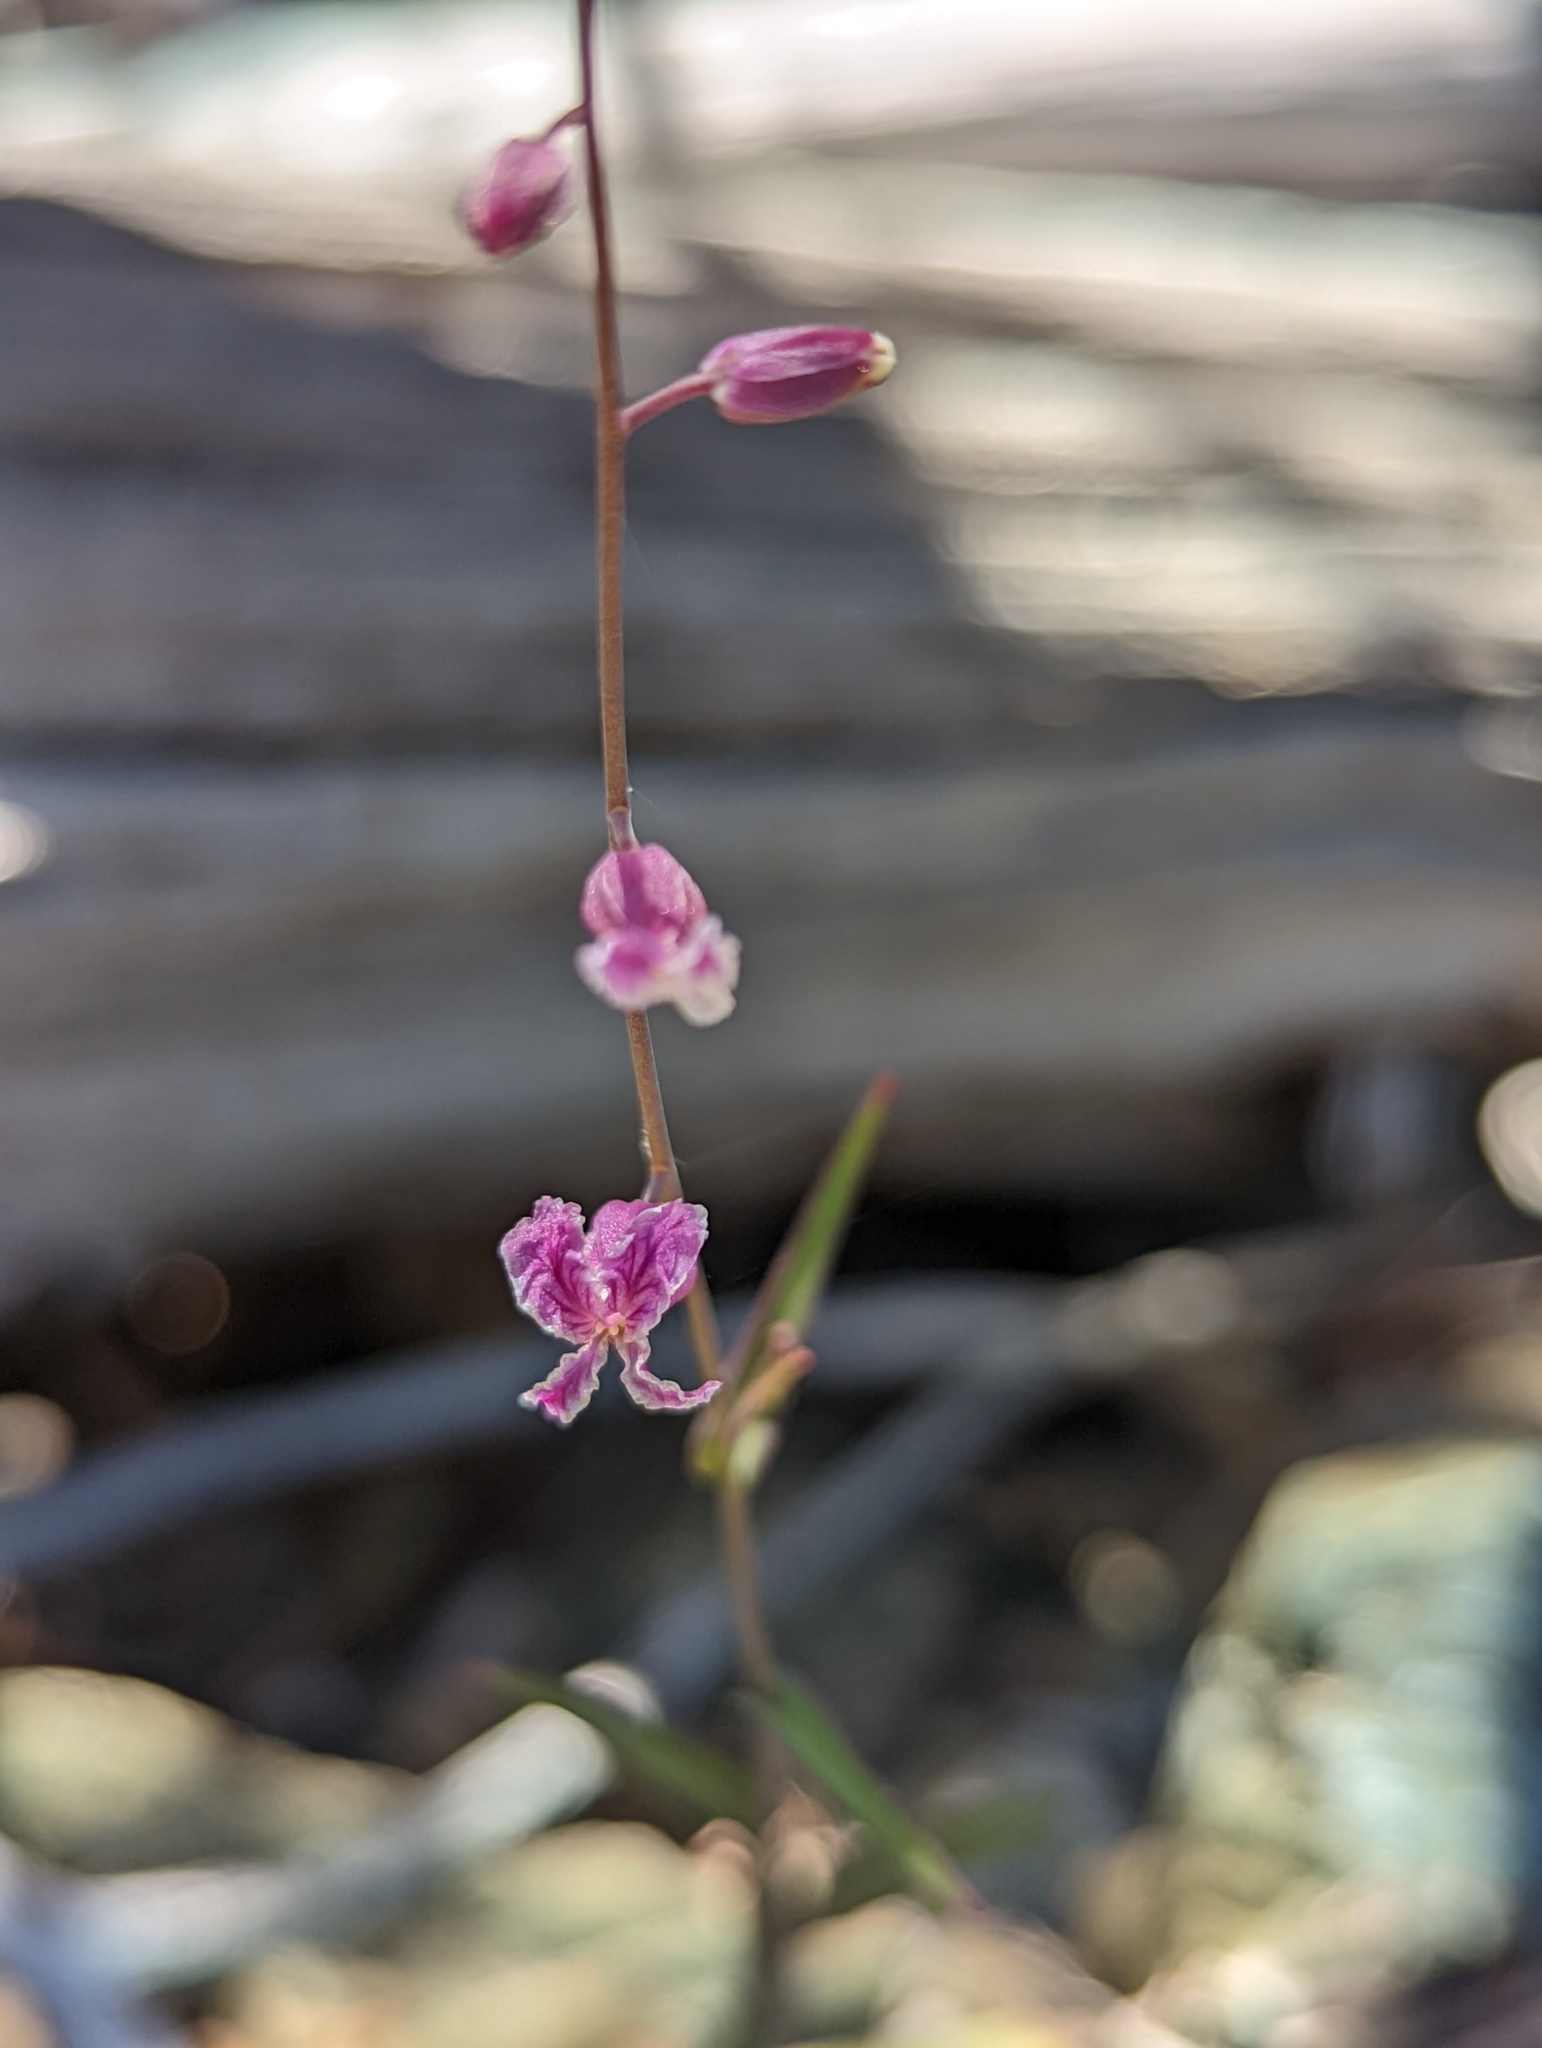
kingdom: Plantae
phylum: Tracheophyta
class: Magnoliopsida
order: Brassicales
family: Brassicaceae
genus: Streptanthus
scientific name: Streptanthus glandulosus
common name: Jewel-flower
